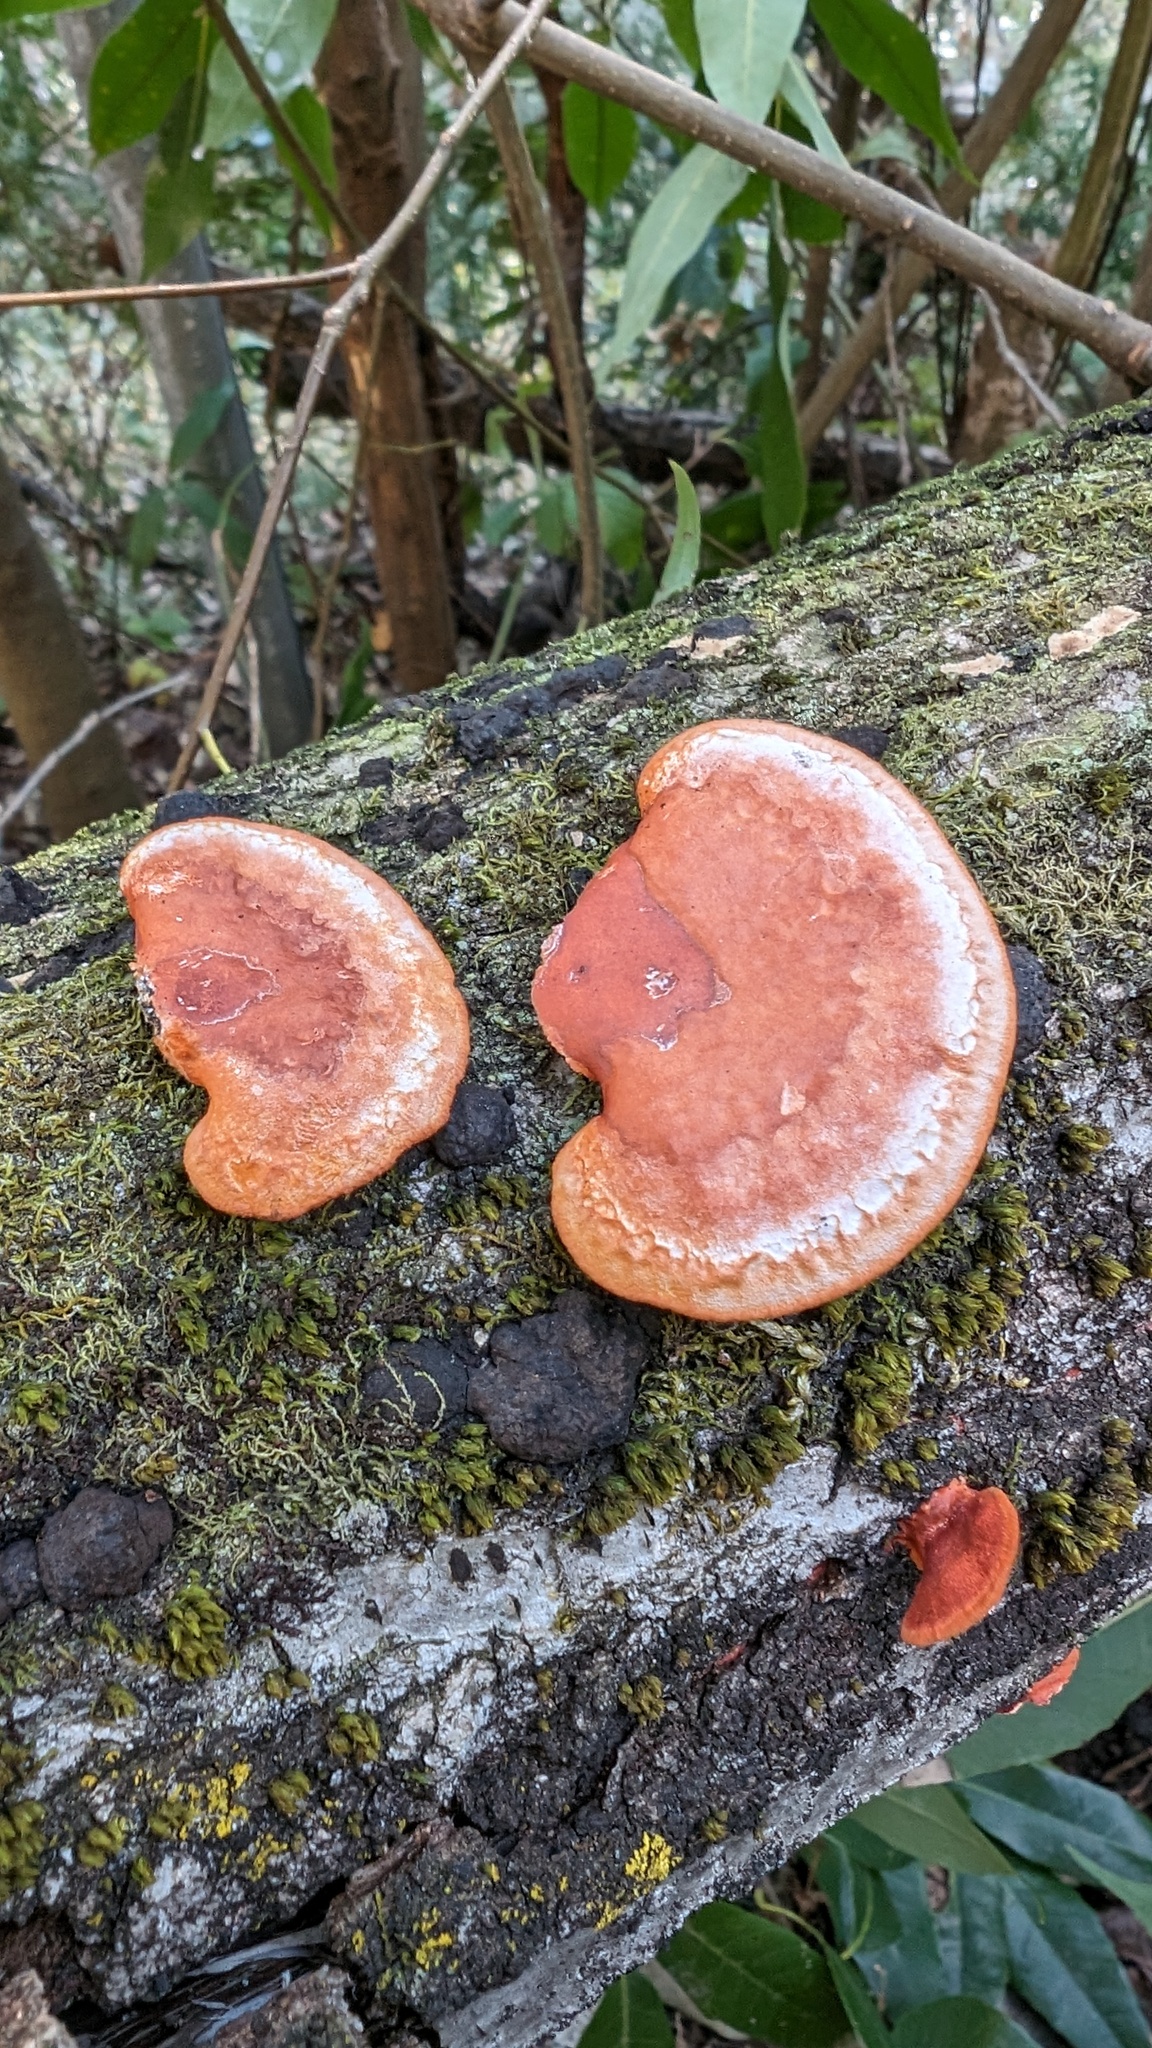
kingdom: Fungi
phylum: Basidiomycota
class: Agaricomycetes
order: Polyporales
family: Polyporaceae
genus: Trametes
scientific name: Trametes coccinea
